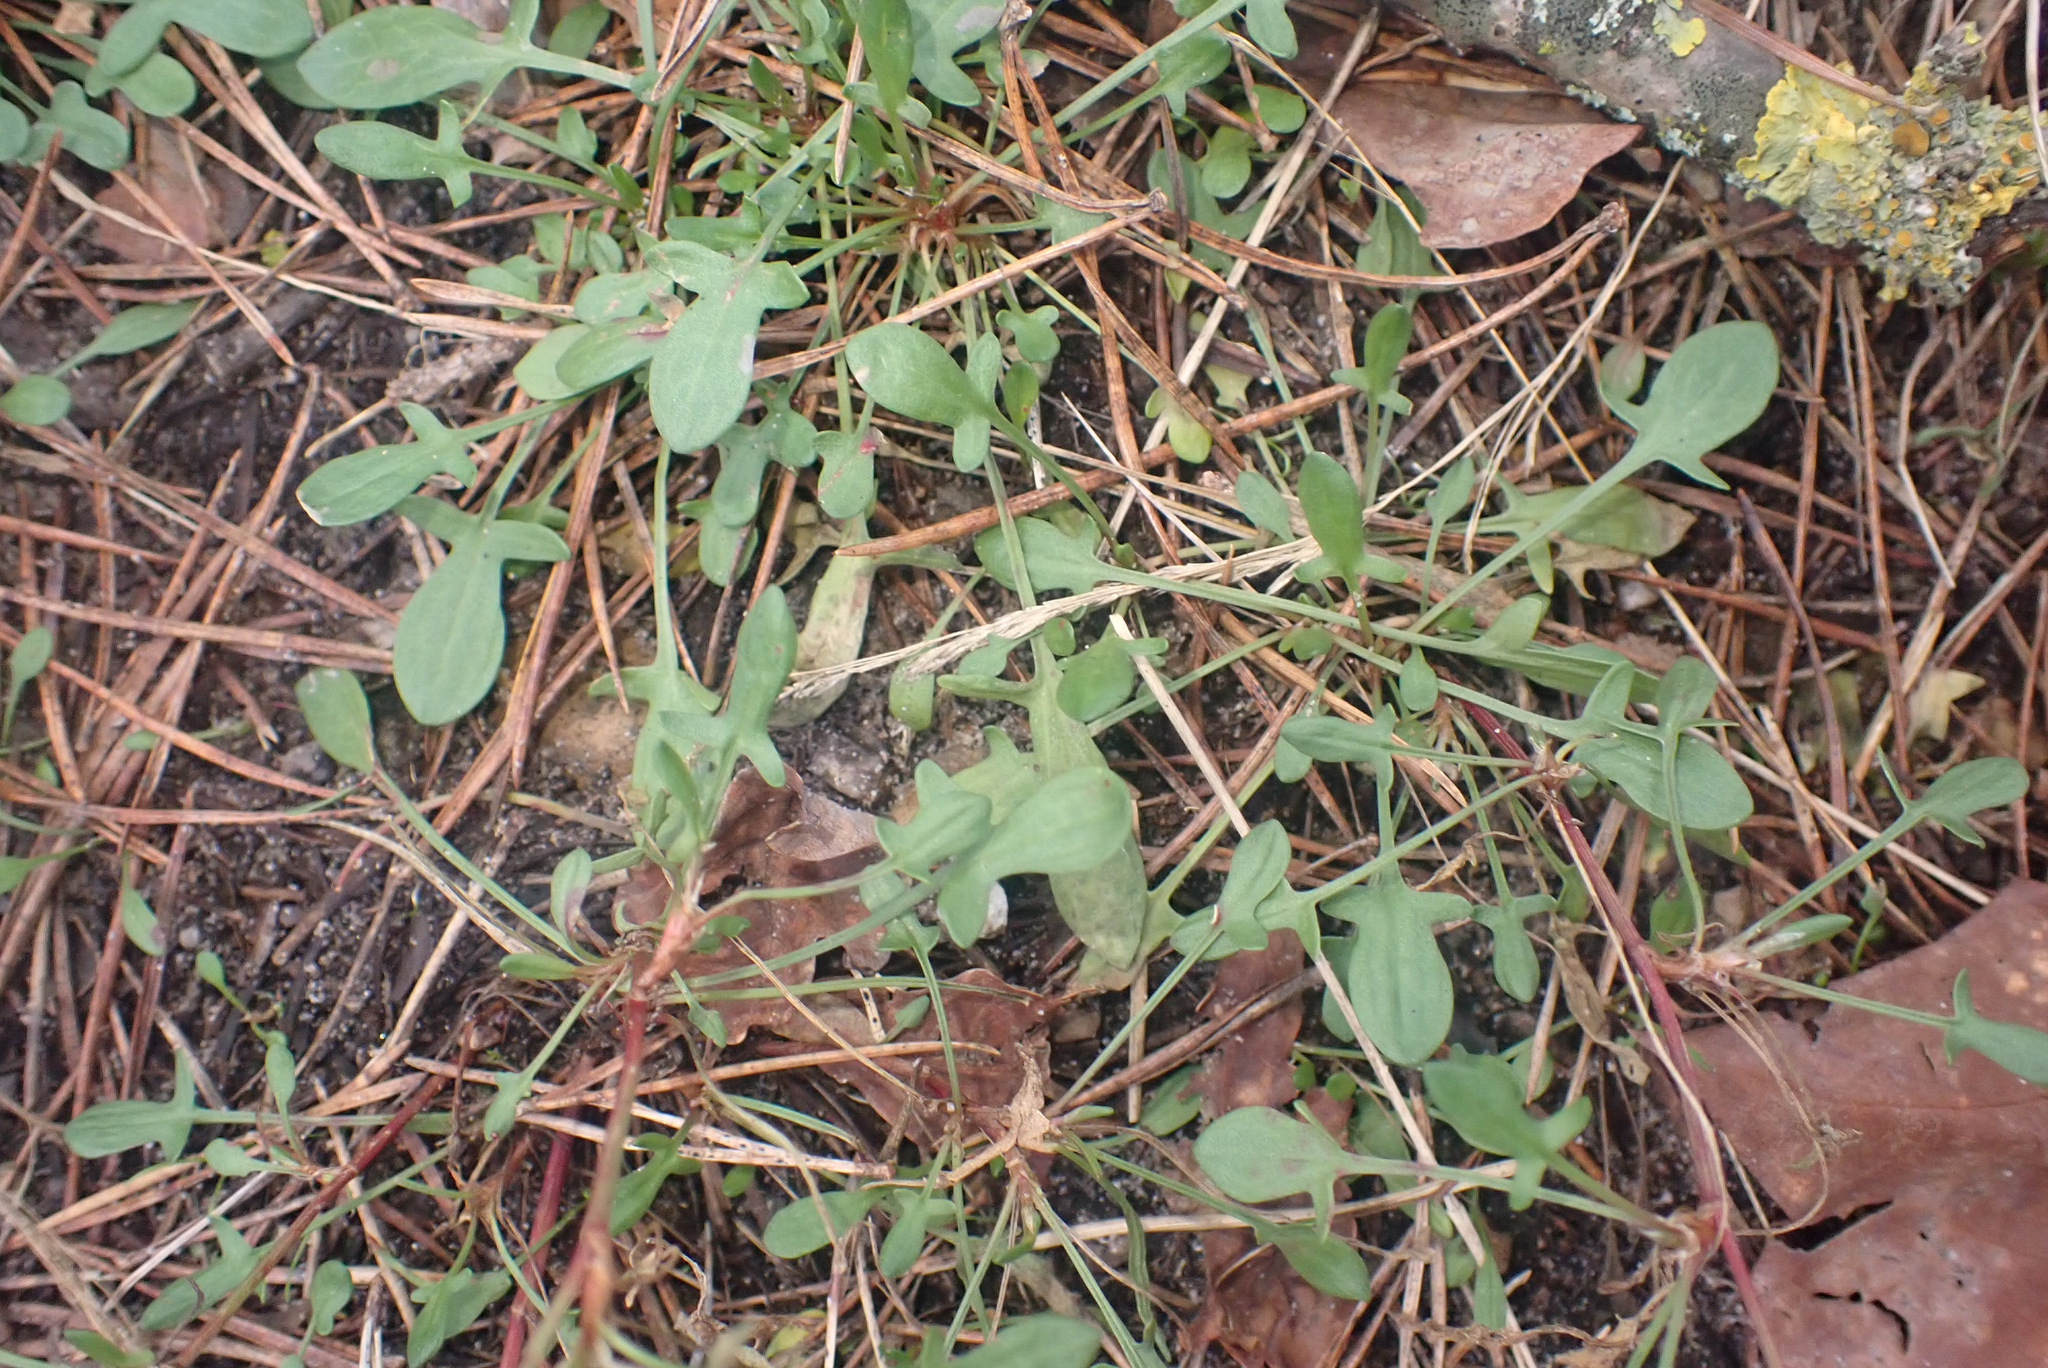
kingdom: Plantae
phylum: Tracheophyta
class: Magnoliopsida
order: Caryophyllales
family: Polygonaceae
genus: Rumex
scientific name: Rumex acetosella
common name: Common sheep sorrel
